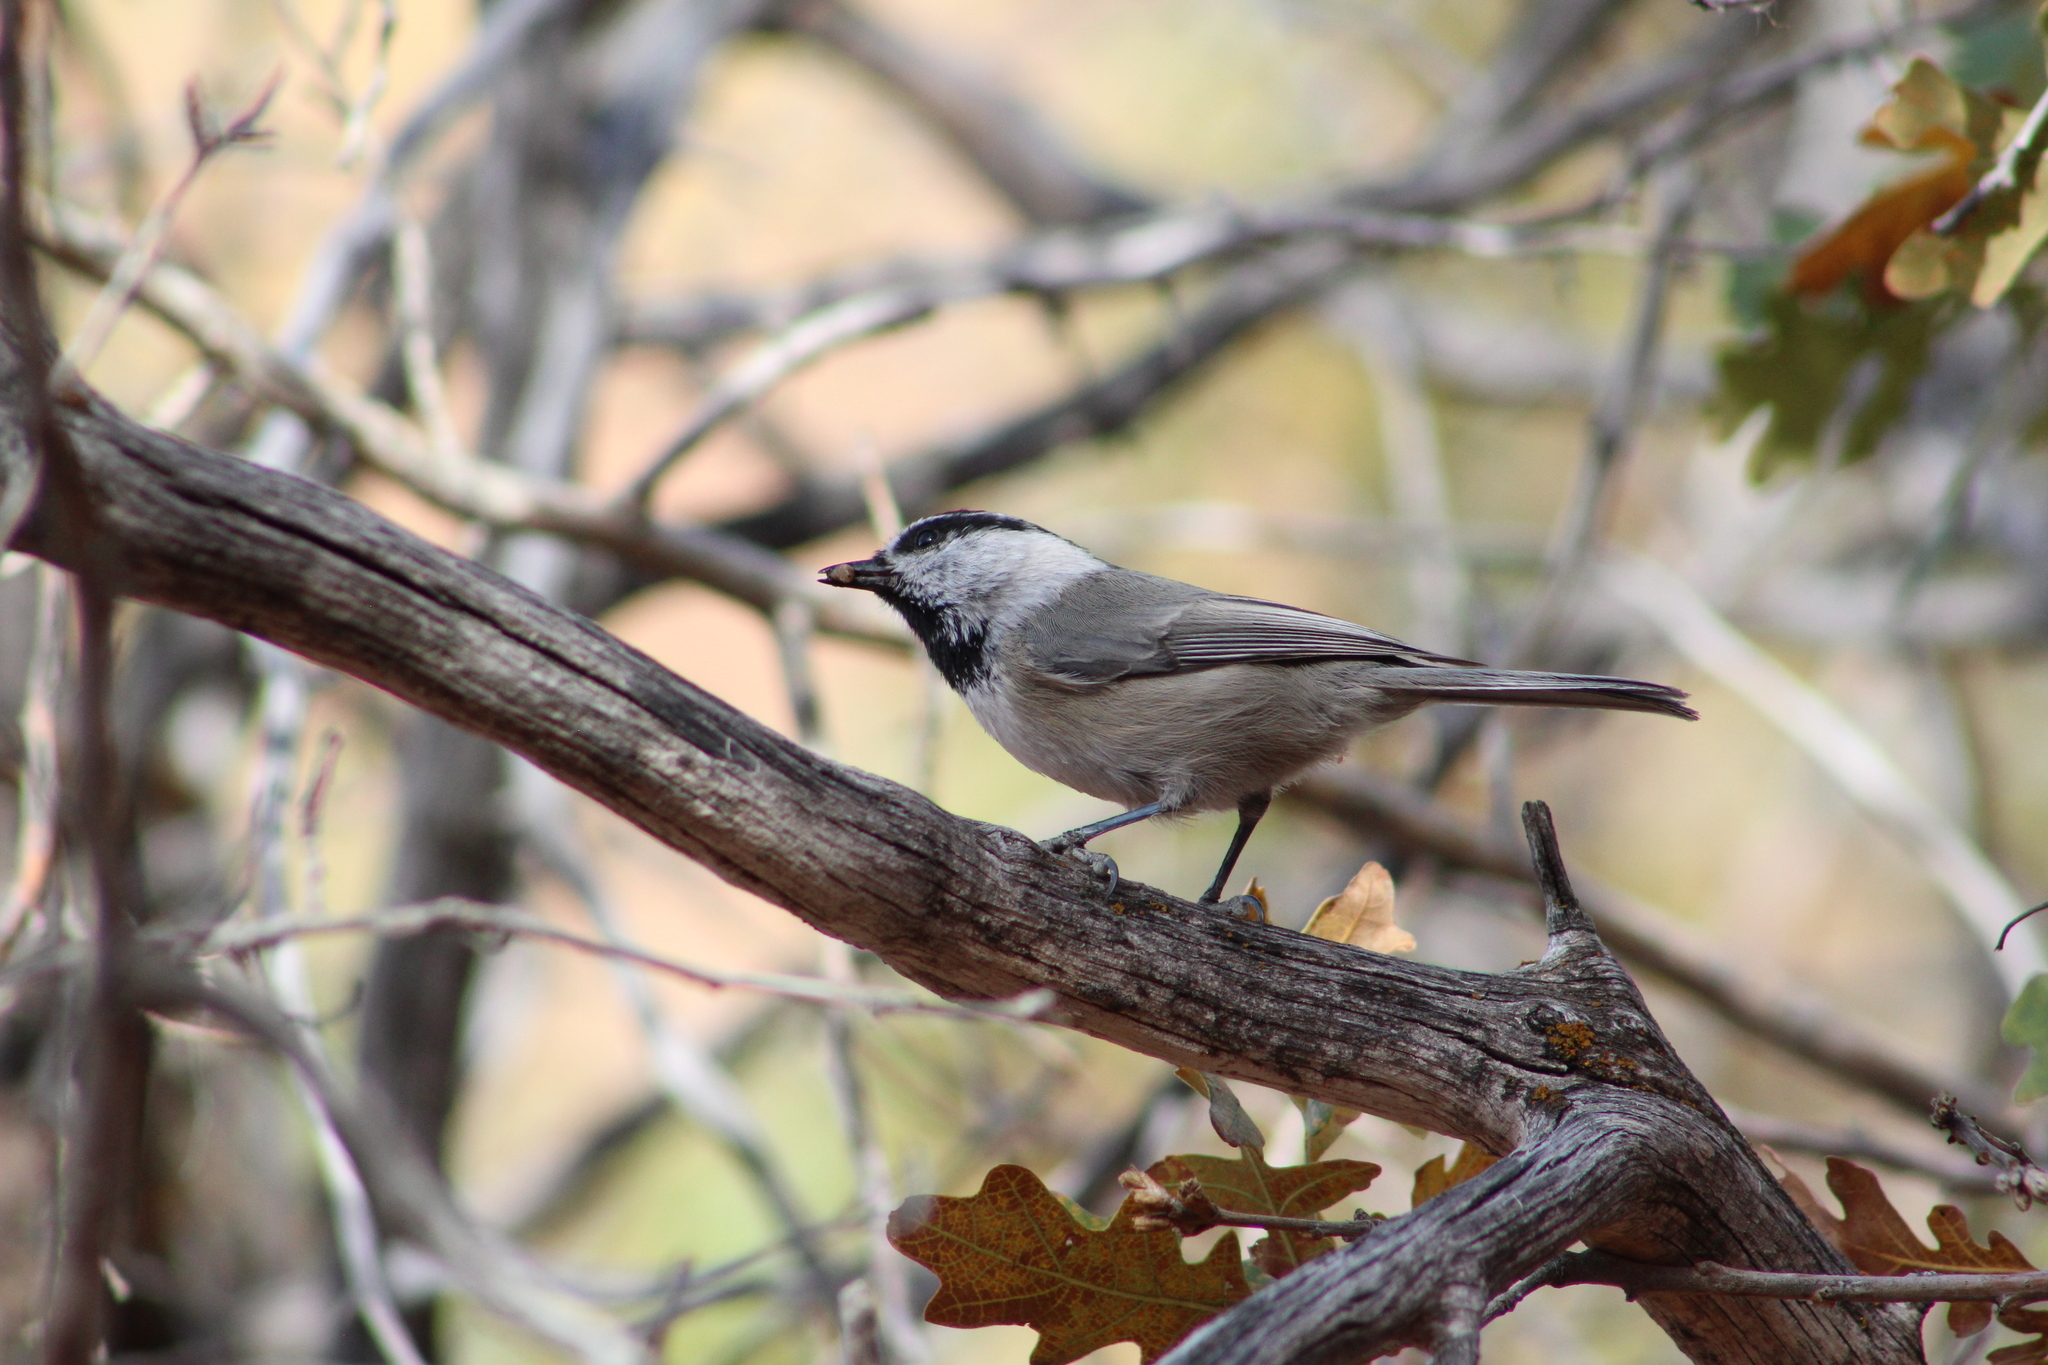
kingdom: Animalia
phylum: Chordata
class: Aves
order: Passeriformes
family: Paridae
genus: Poecile
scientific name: Poecile gambeli
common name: Mountain chickadee
